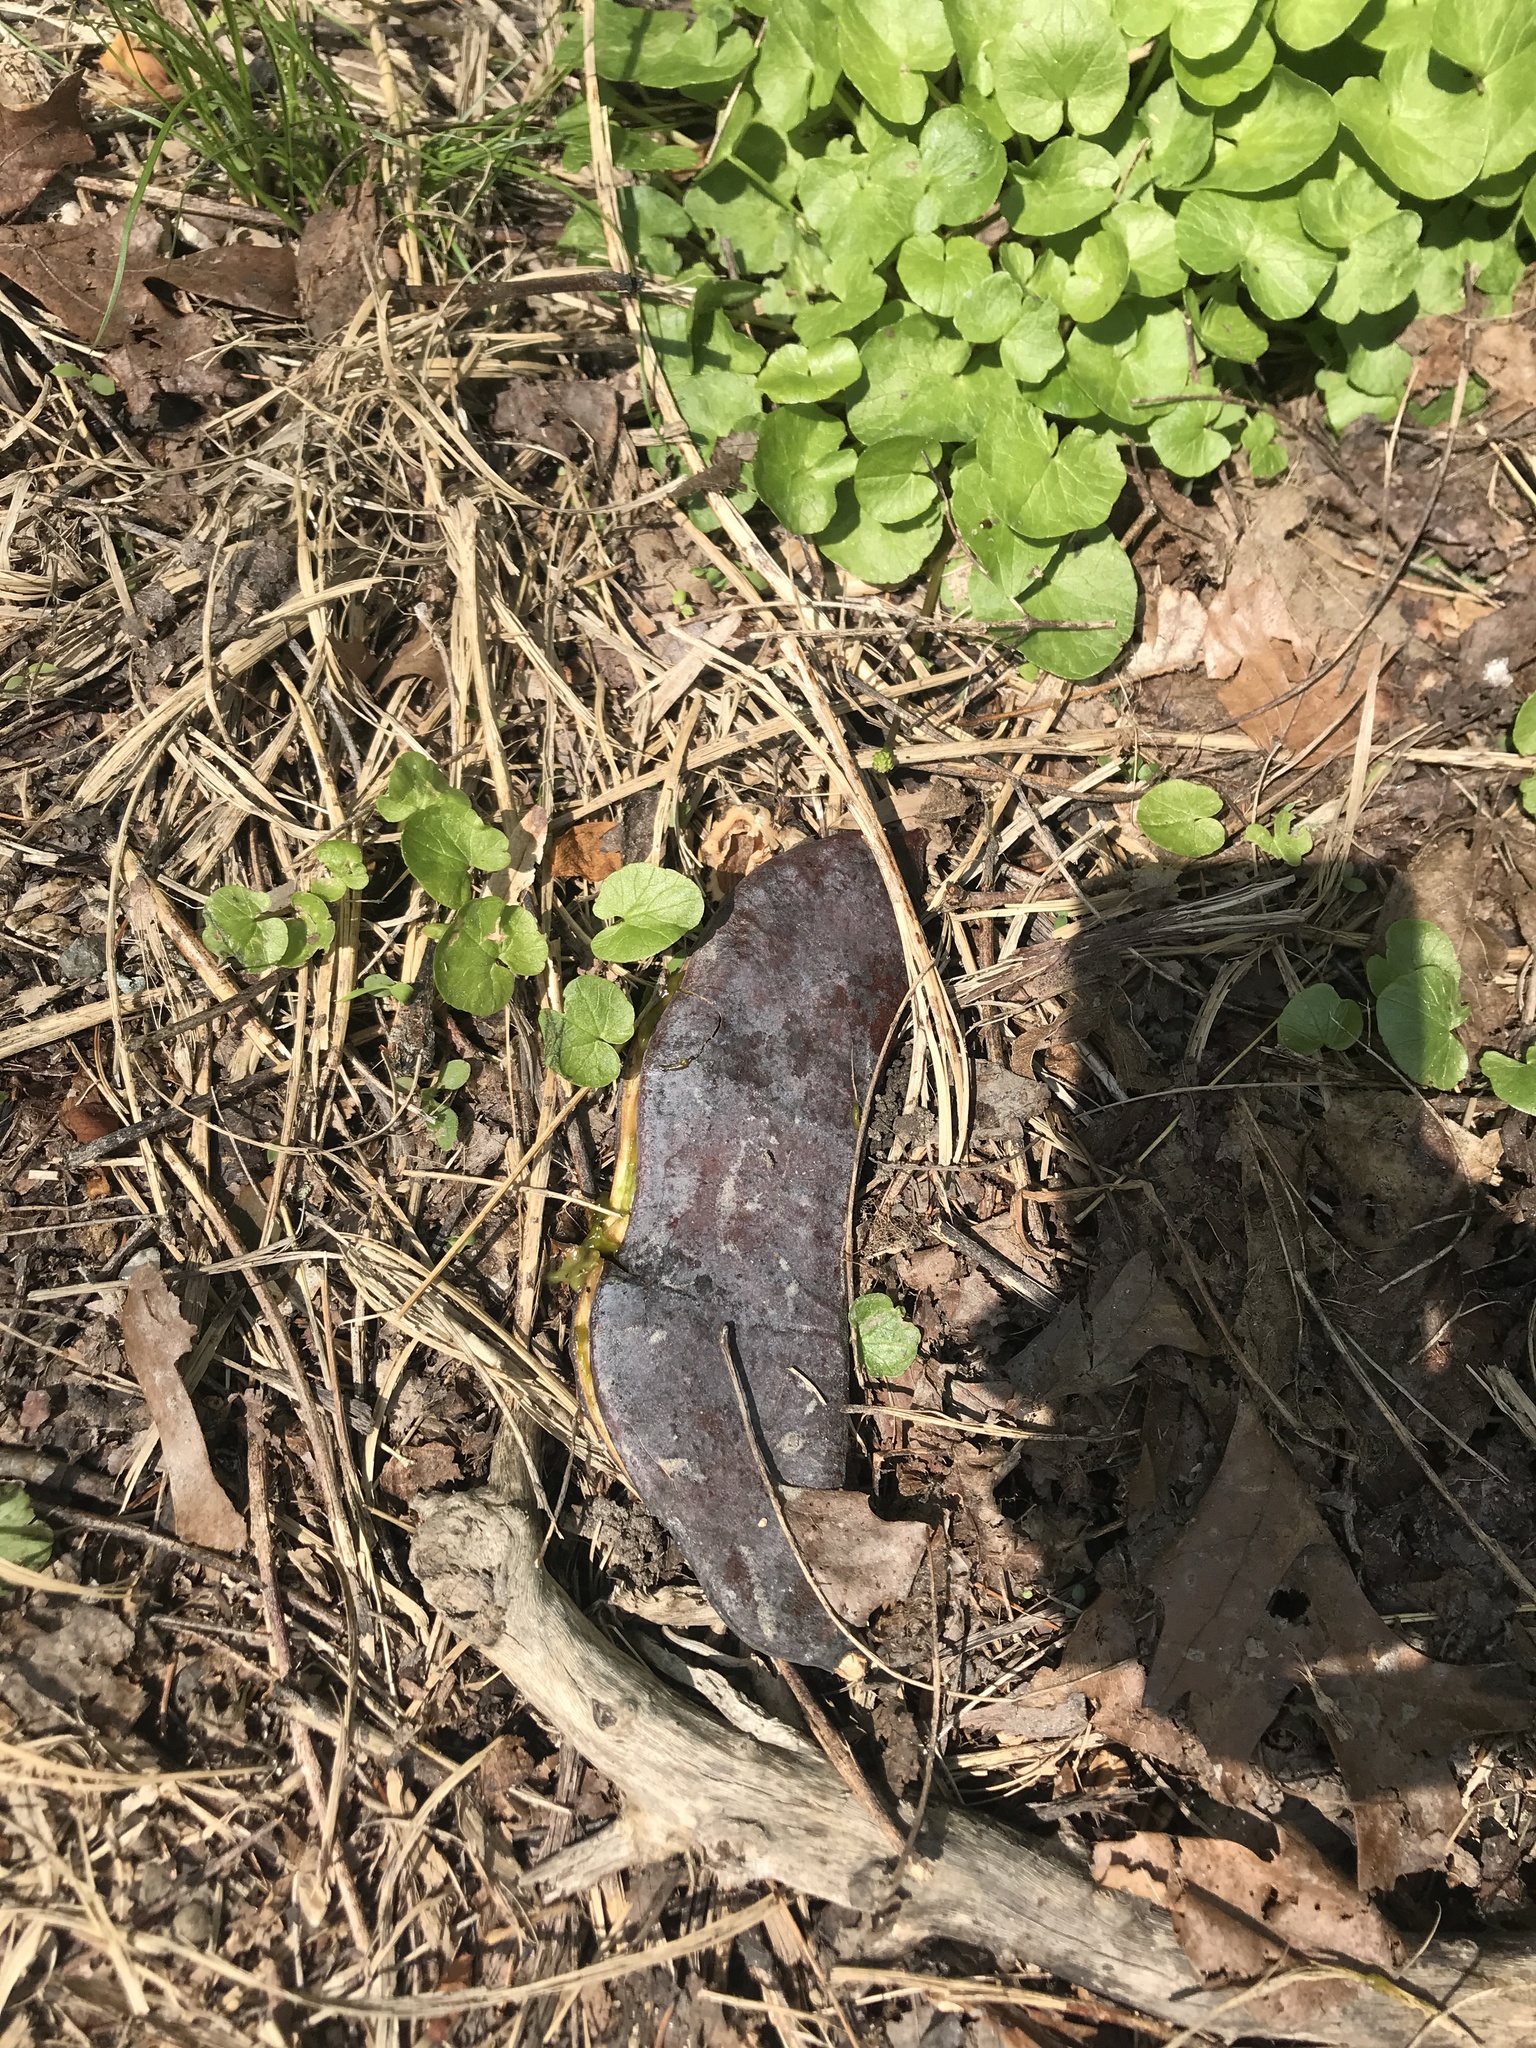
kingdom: Plantae
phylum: Tracheophyta
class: Magnoliopsida
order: Fabales
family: Fabaceae
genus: Gymnocladus
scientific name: Gymnocladus dioicus
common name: Kentucky coffee-tree
